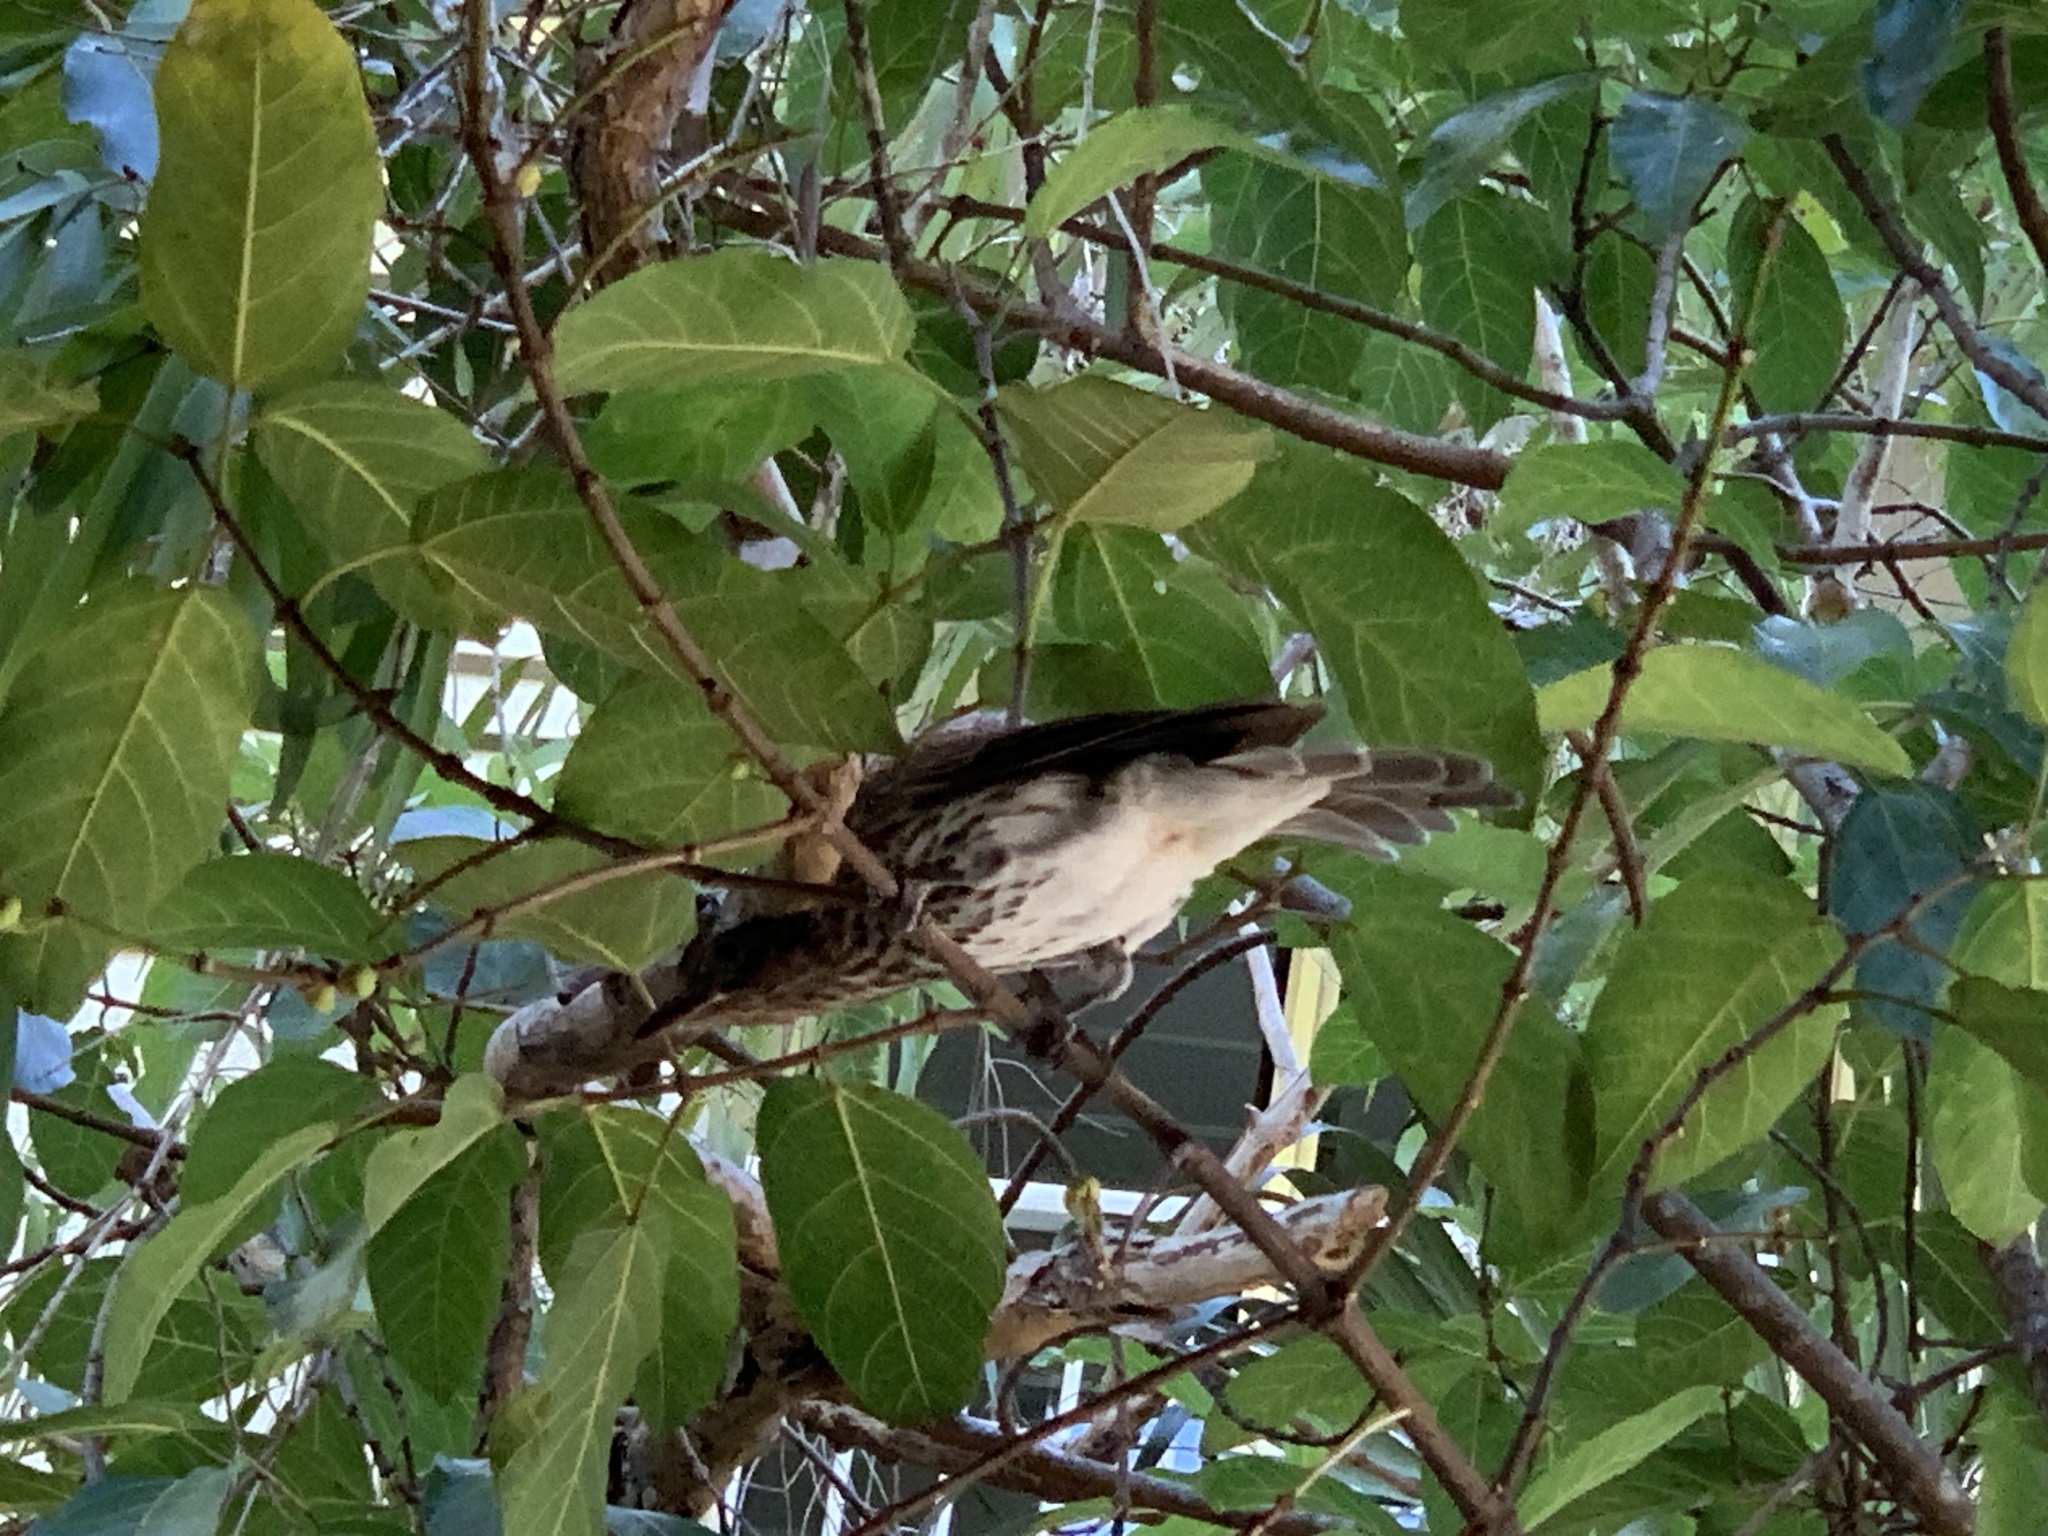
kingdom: Animalia
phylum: Chordata
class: Aves
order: Passeriformes
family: Oriolidae
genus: Sphecotheres
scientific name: Sphecotheres vieilloti
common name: Australasian figbird
